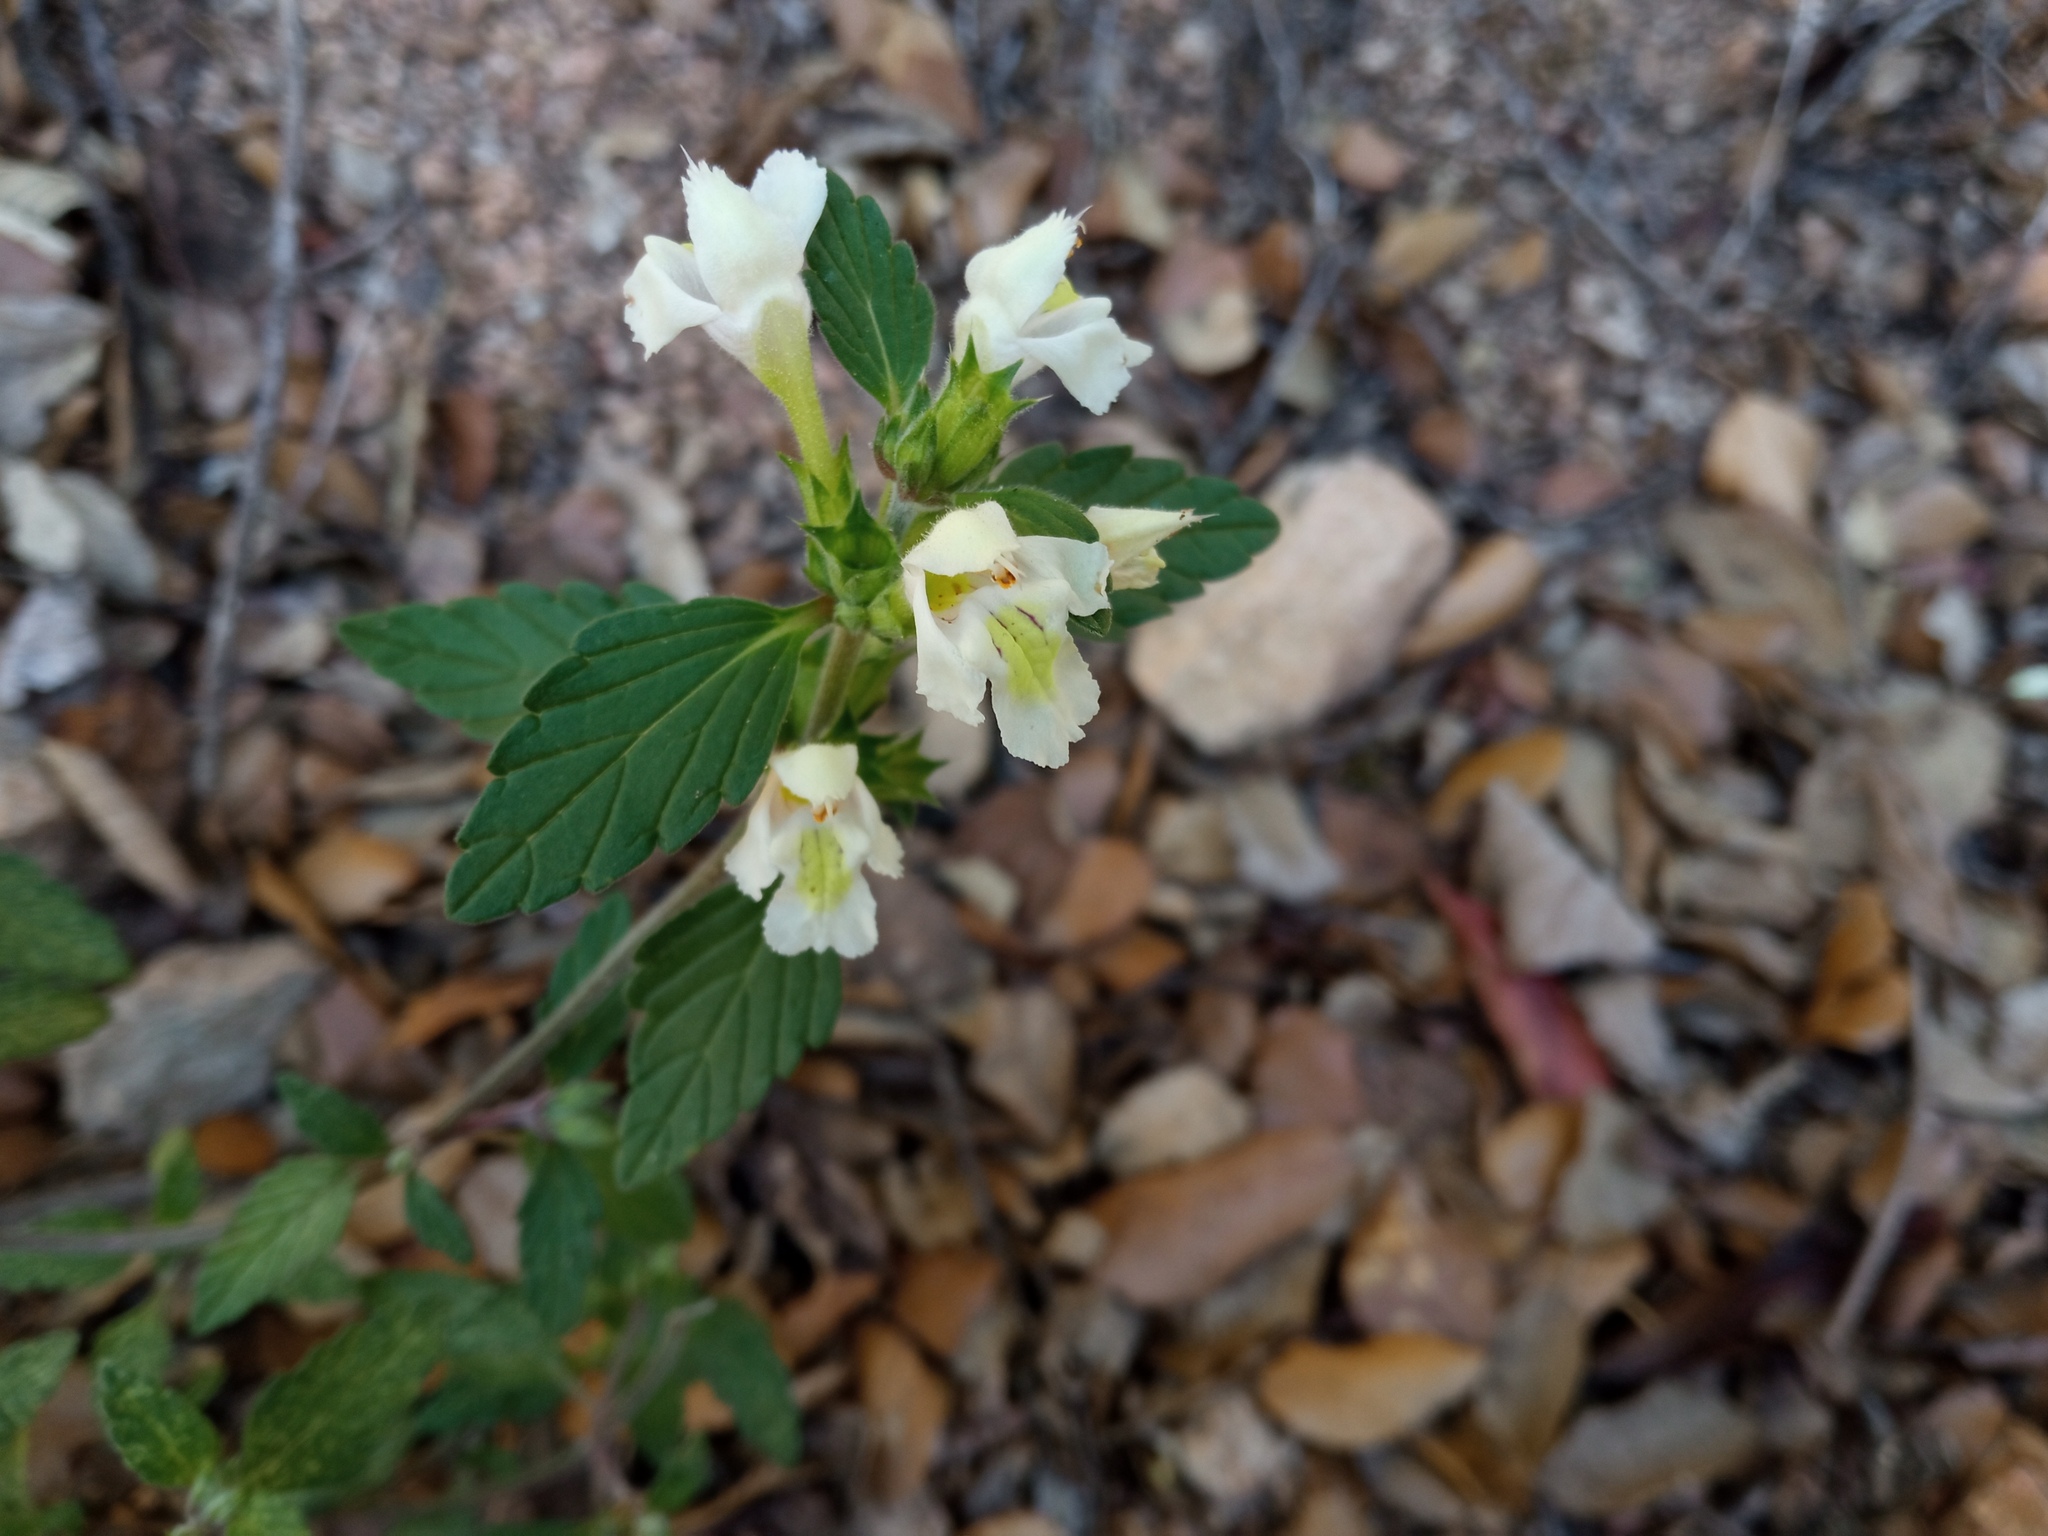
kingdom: Plantae
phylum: Tracheophyta
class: Magnoliopsida
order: Lamiales
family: Lamiaceae
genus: Galeopsis
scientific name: Galeopsis segetum
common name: Downy hemp-nettle
